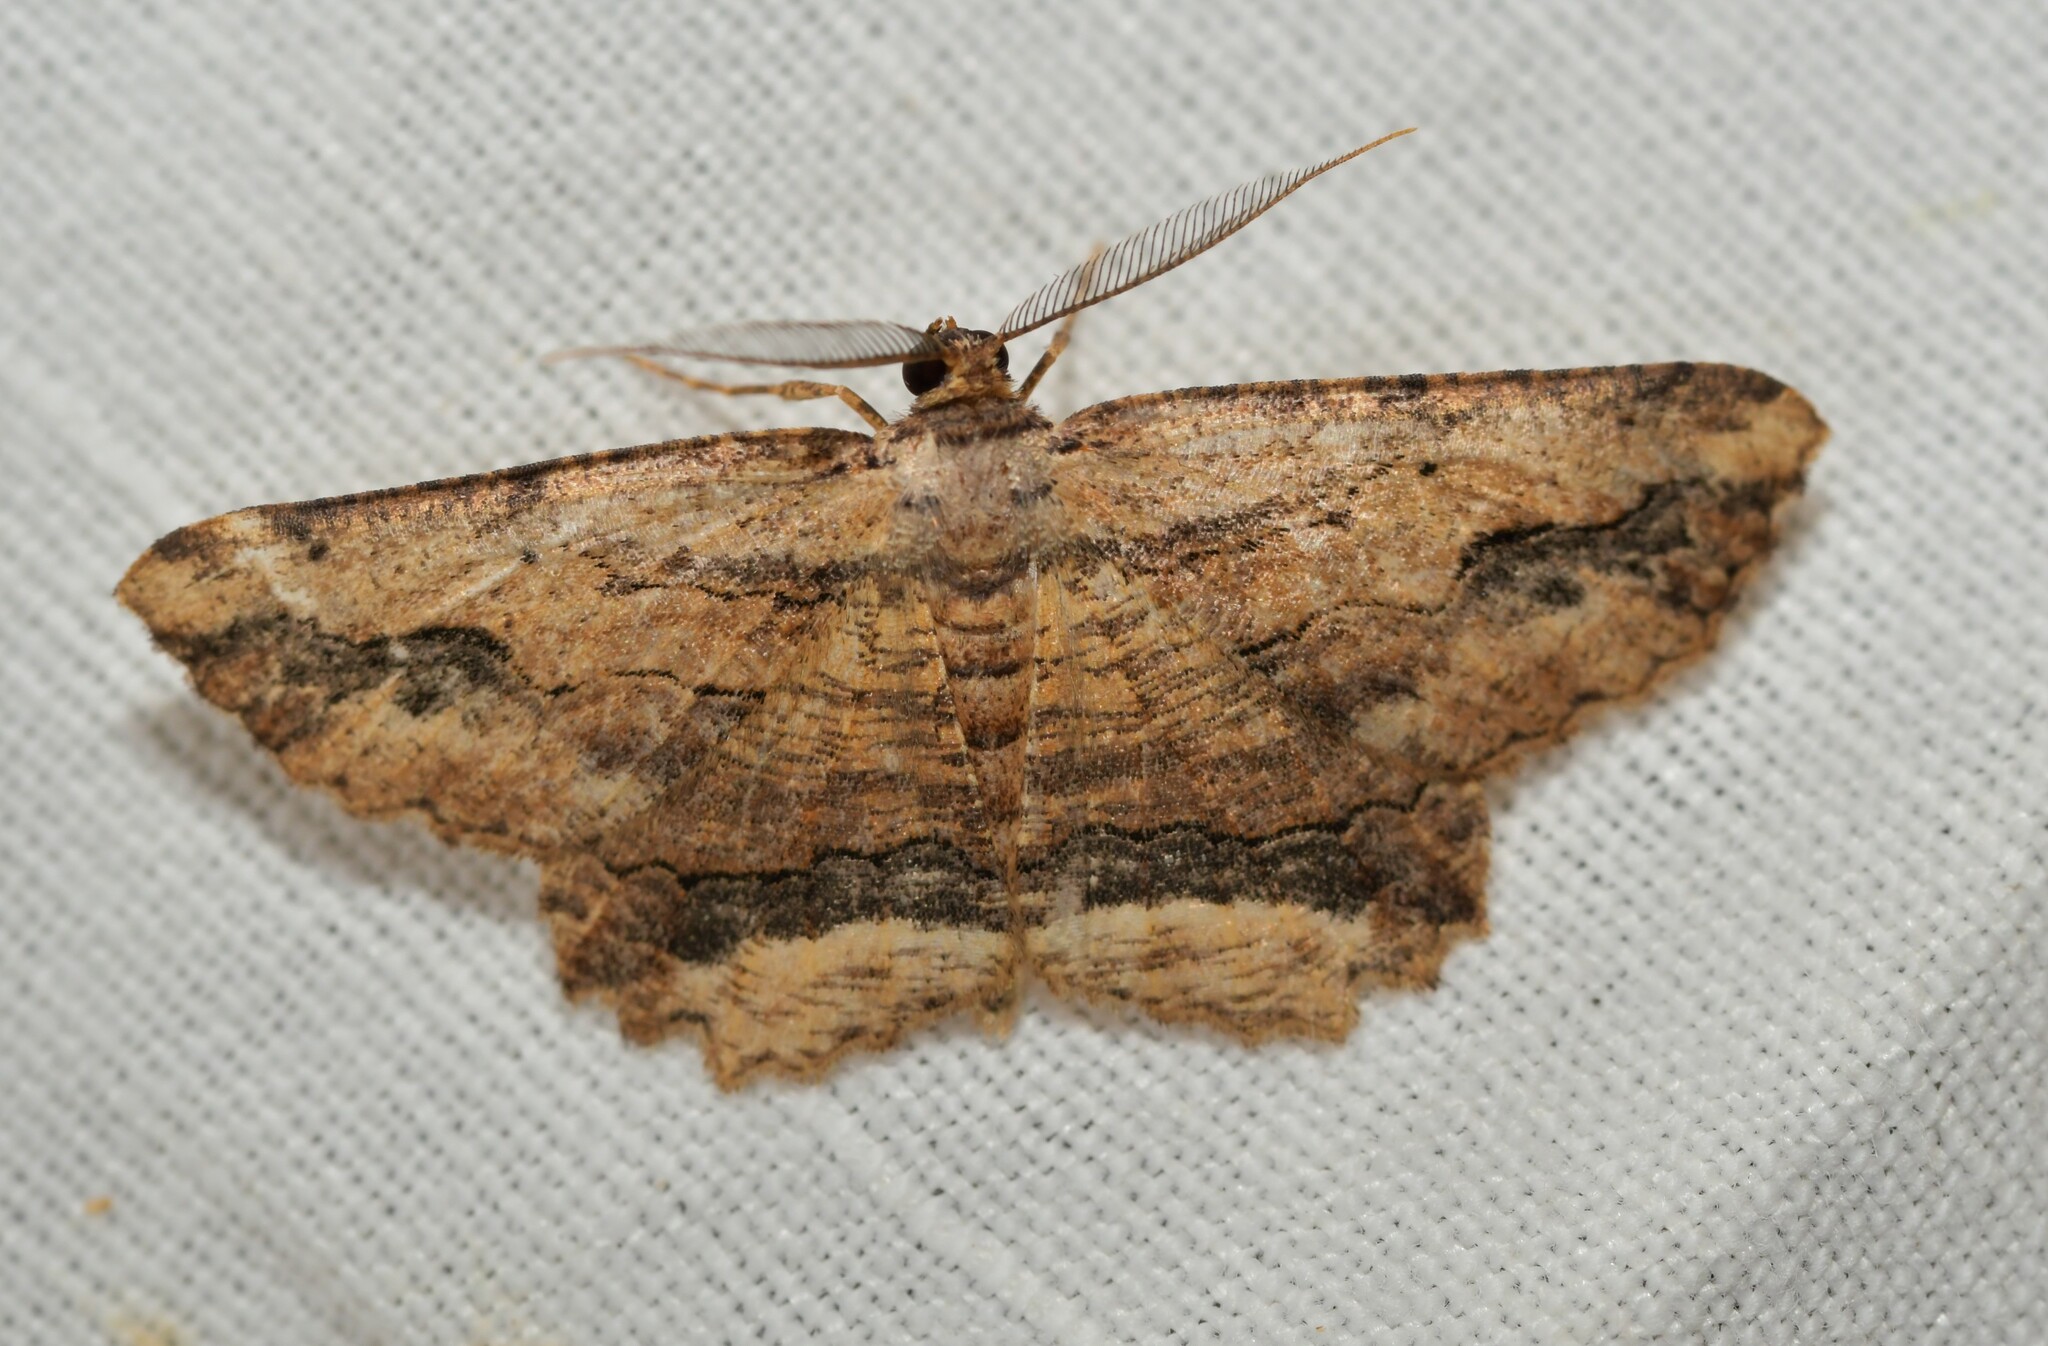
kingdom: Animalia
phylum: Arthropoda
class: Insecta
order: Lepidoptera
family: Geometridae
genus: Menophra
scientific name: Menophra abruptaria
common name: Waved umber
